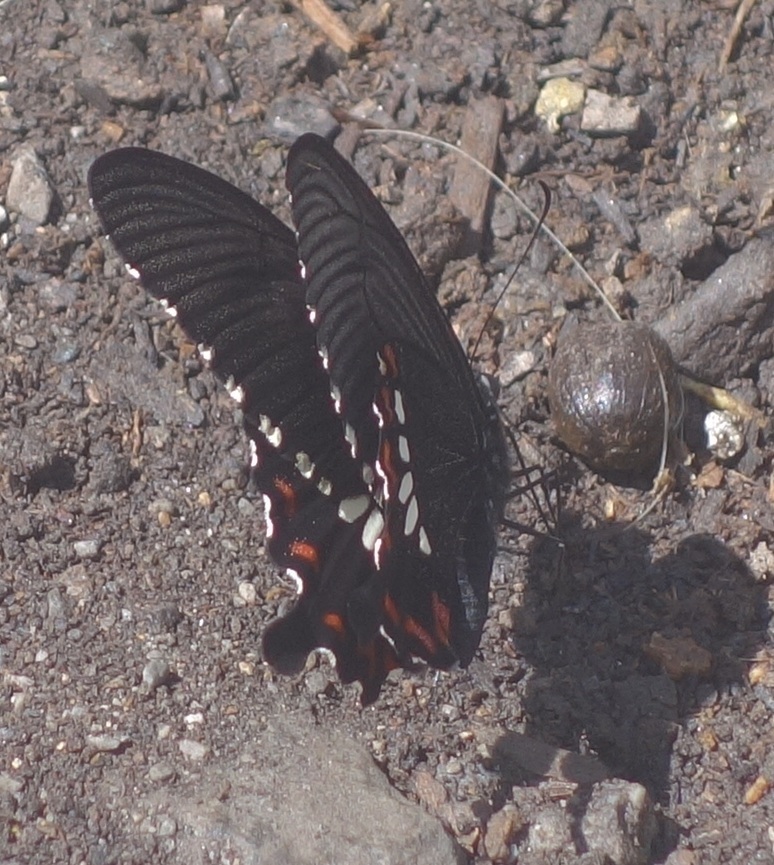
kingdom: Animalia
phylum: Arthropoda
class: Insecta
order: Lepidoptera
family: Papilionidae
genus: Papilio
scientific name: Papilio polytes
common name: Common mormon
